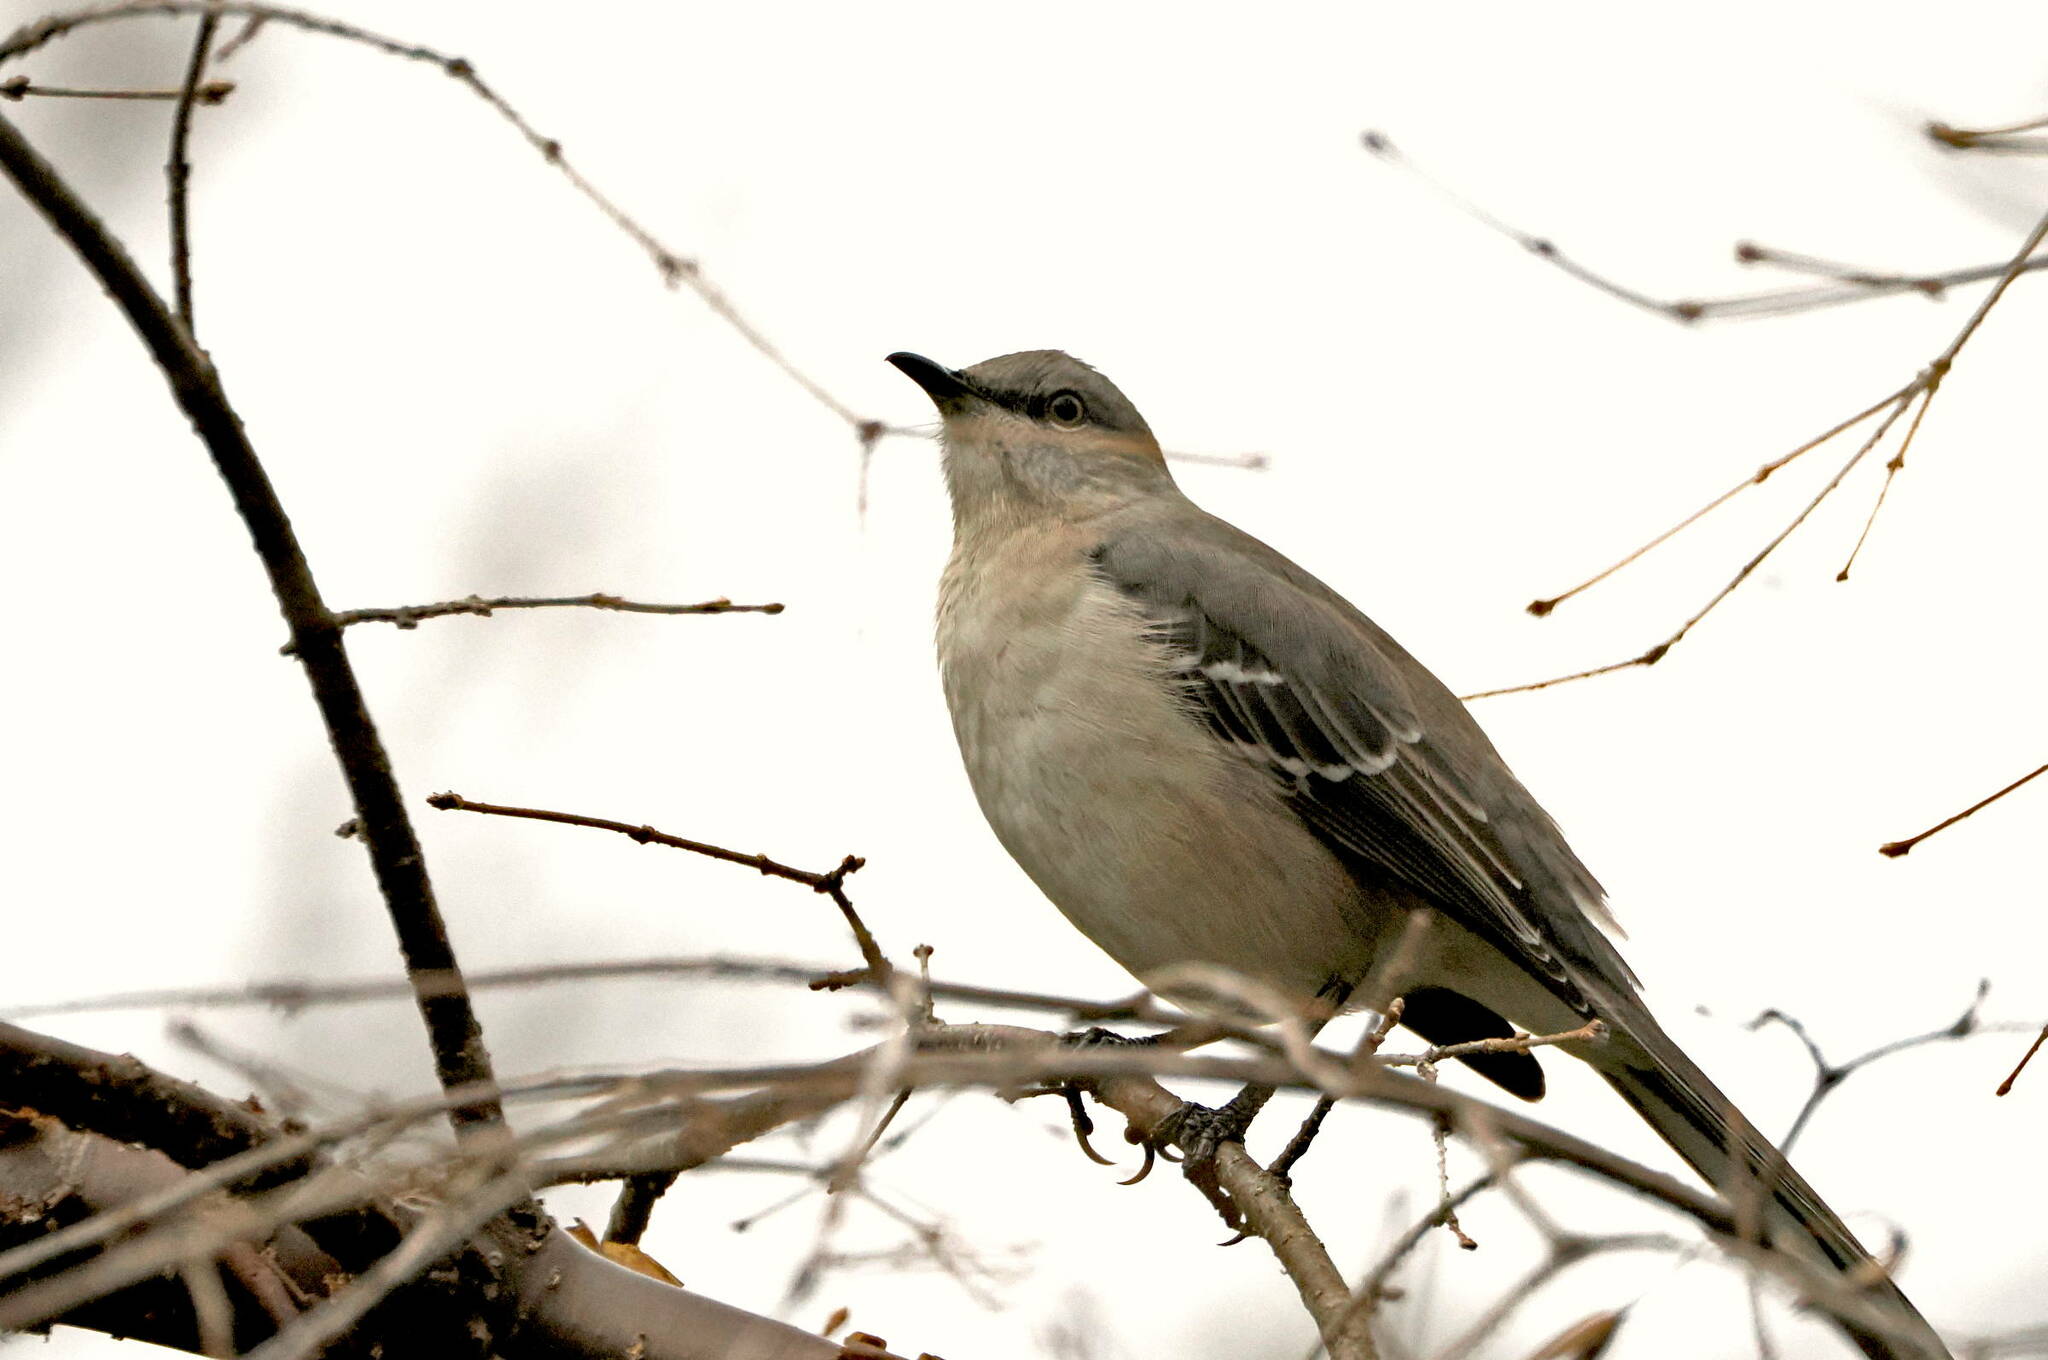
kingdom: Animalia
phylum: Chordata
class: Aves
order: Passeriformes
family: Mimidae
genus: Mimus
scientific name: Mimus polyglottos
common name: Northern mockingbird
